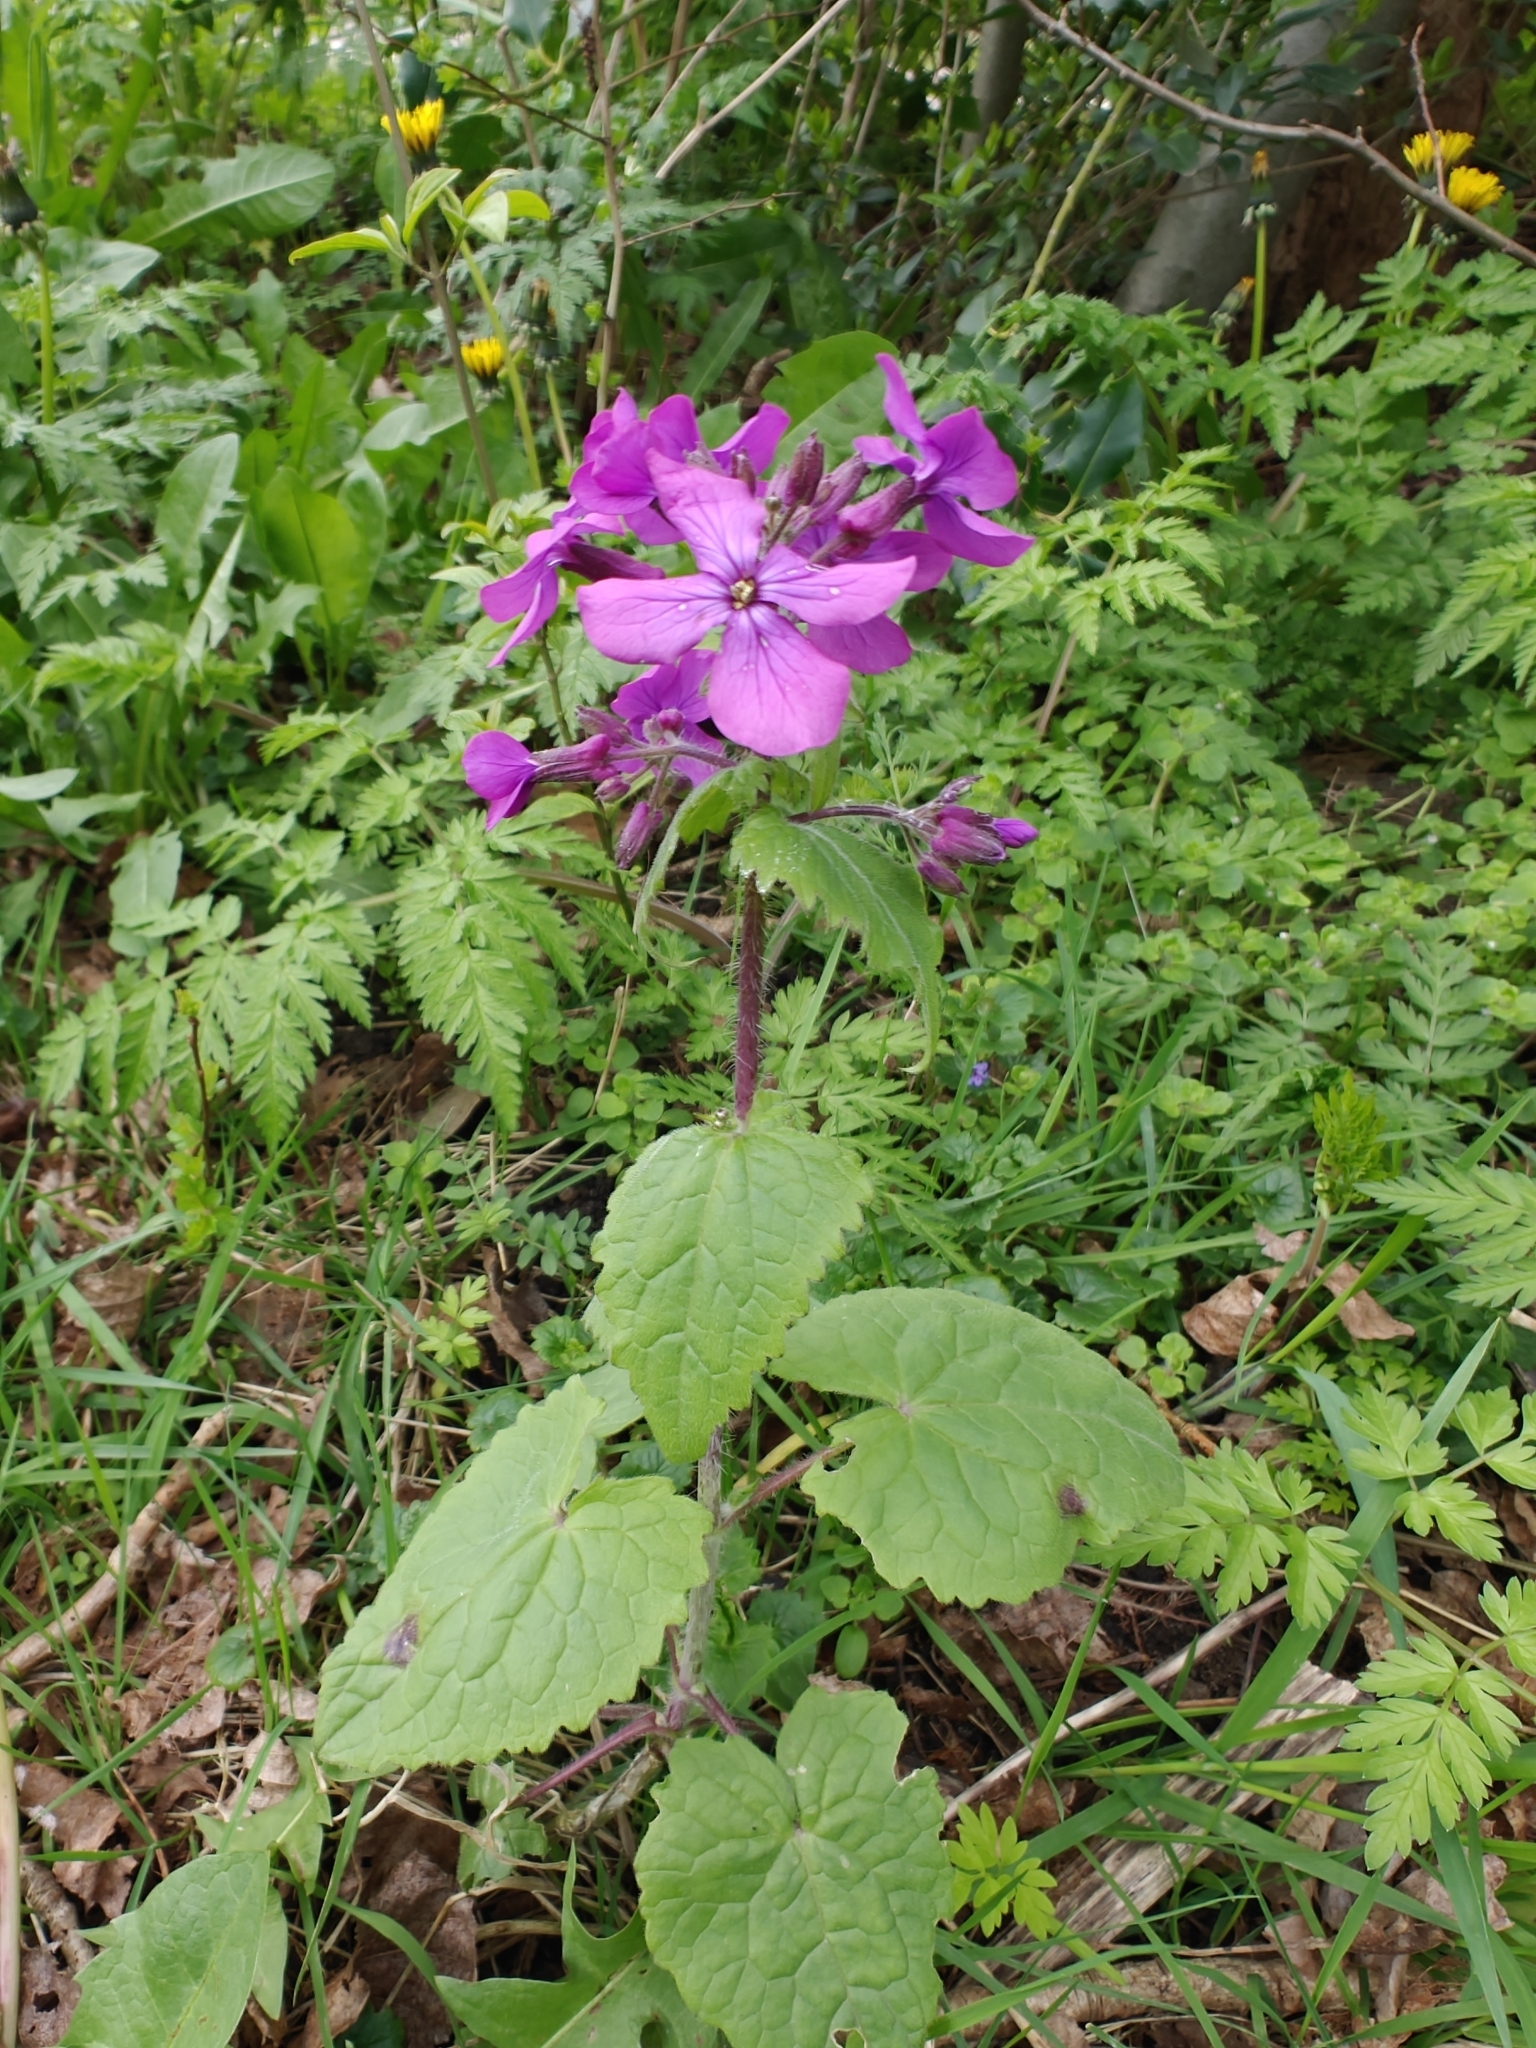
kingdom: Plantae
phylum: Tracheophyta
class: Magnoliopsida
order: Brassicales
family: Brassicaceae
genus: Lunaria
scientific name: Lunaria annua
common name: Honesty
